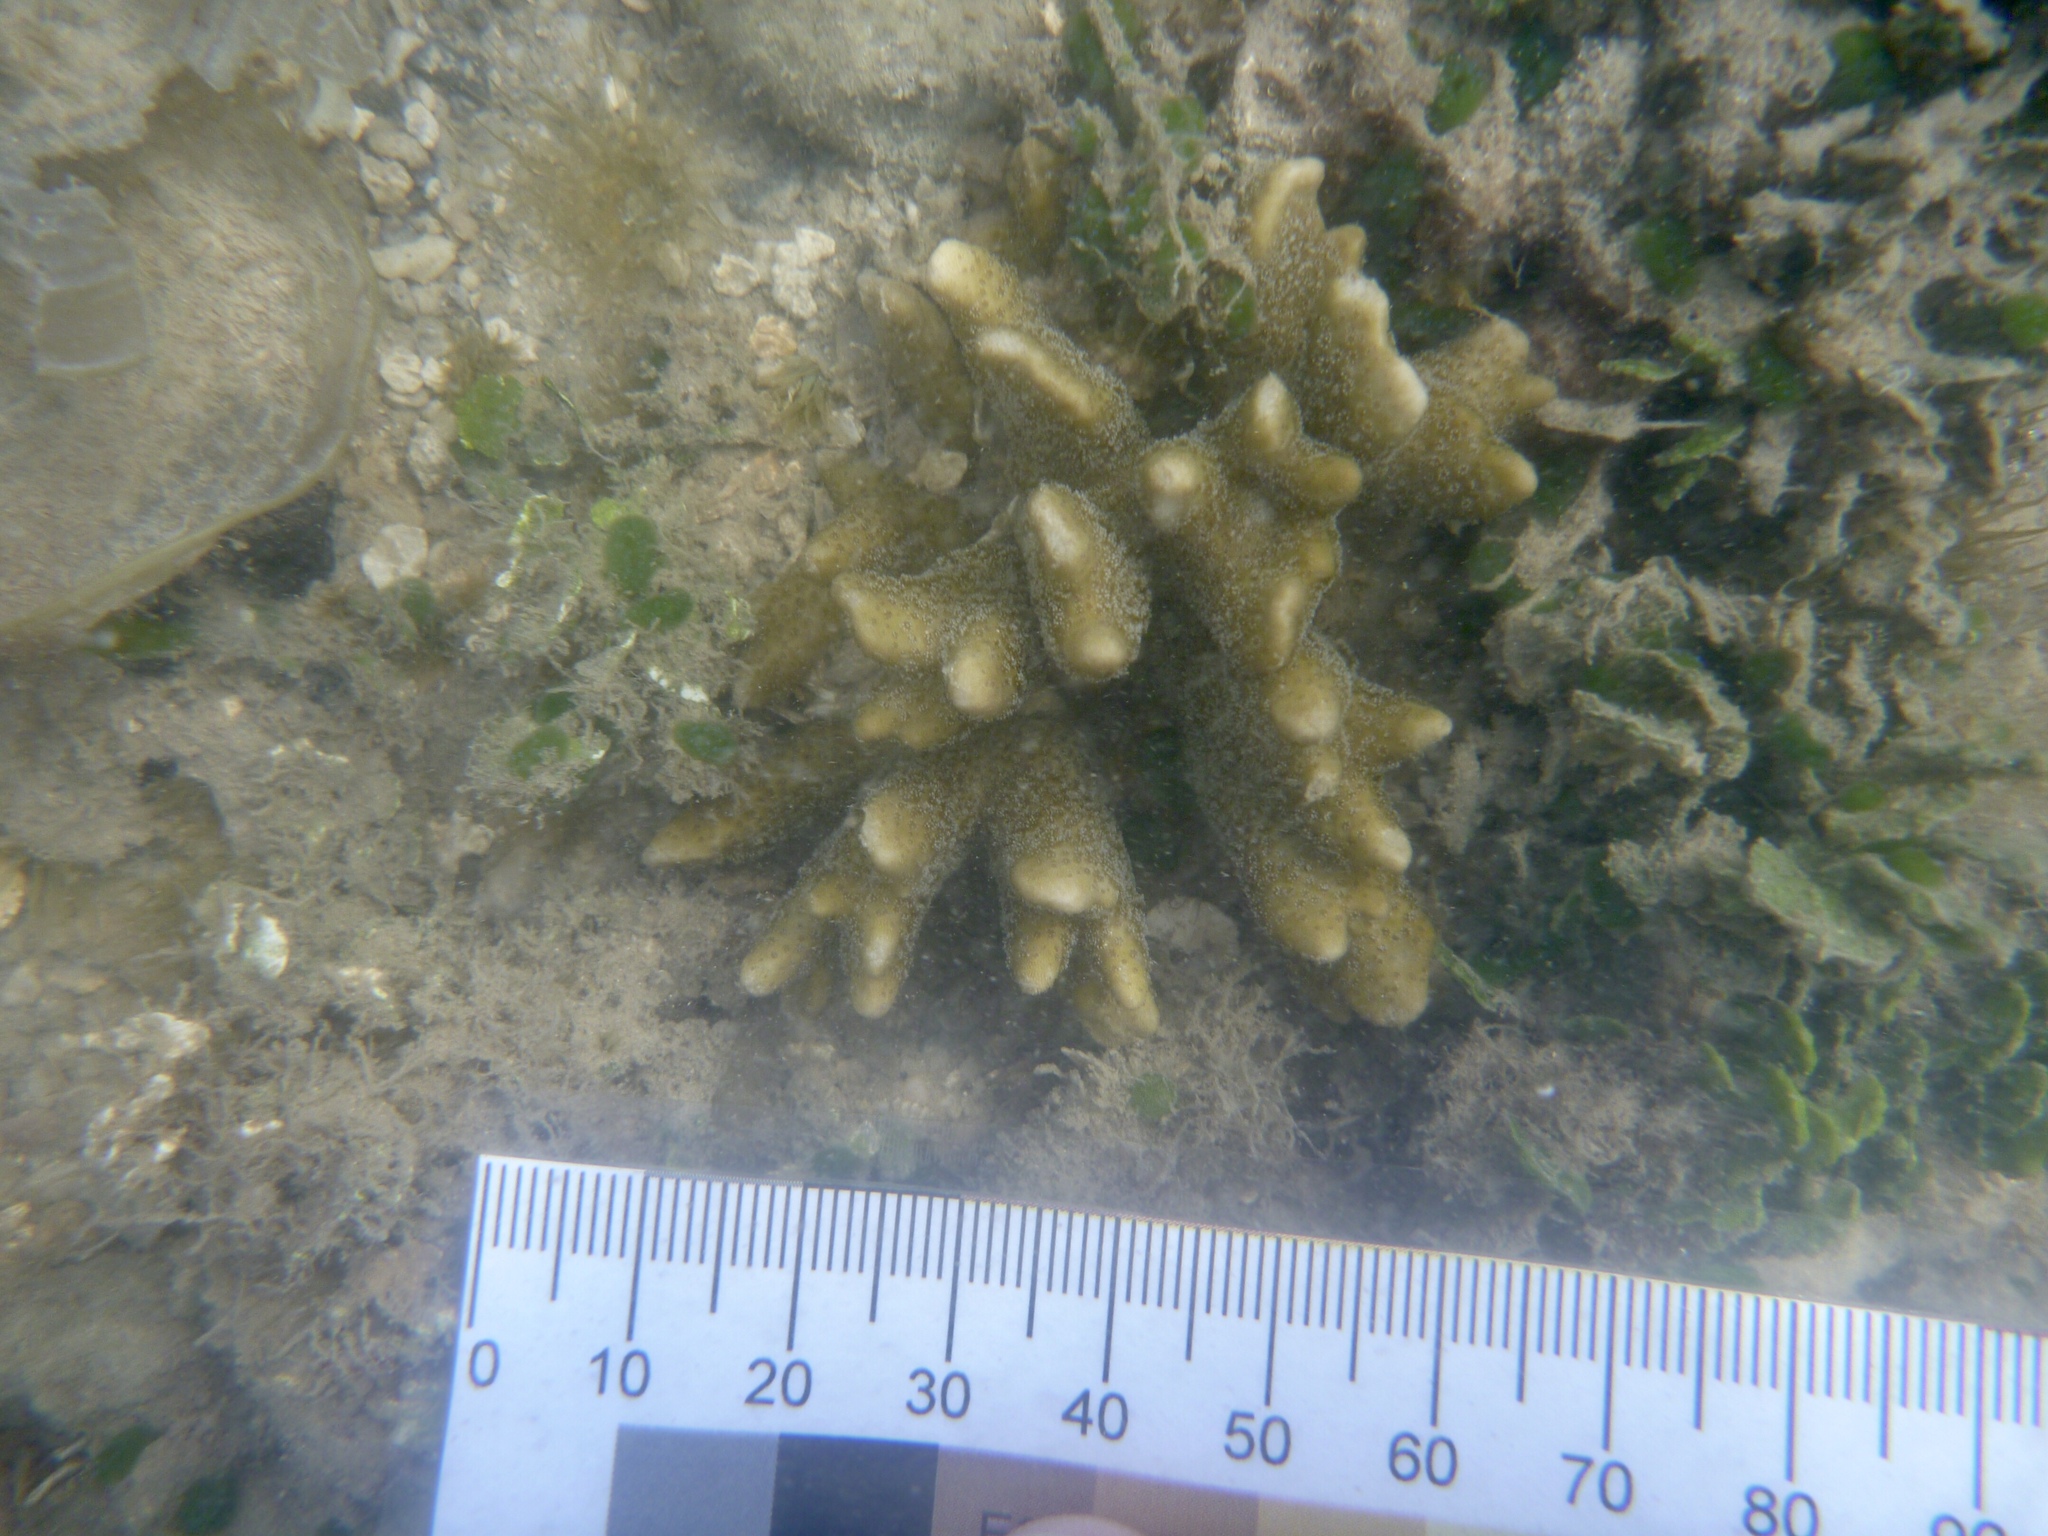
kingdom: Animalia
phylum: Cnidaria
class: Anthozoa
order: Scleractinia
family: Acroporidae
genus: Montipora
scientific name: Montipora digitata
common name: Pore coral
